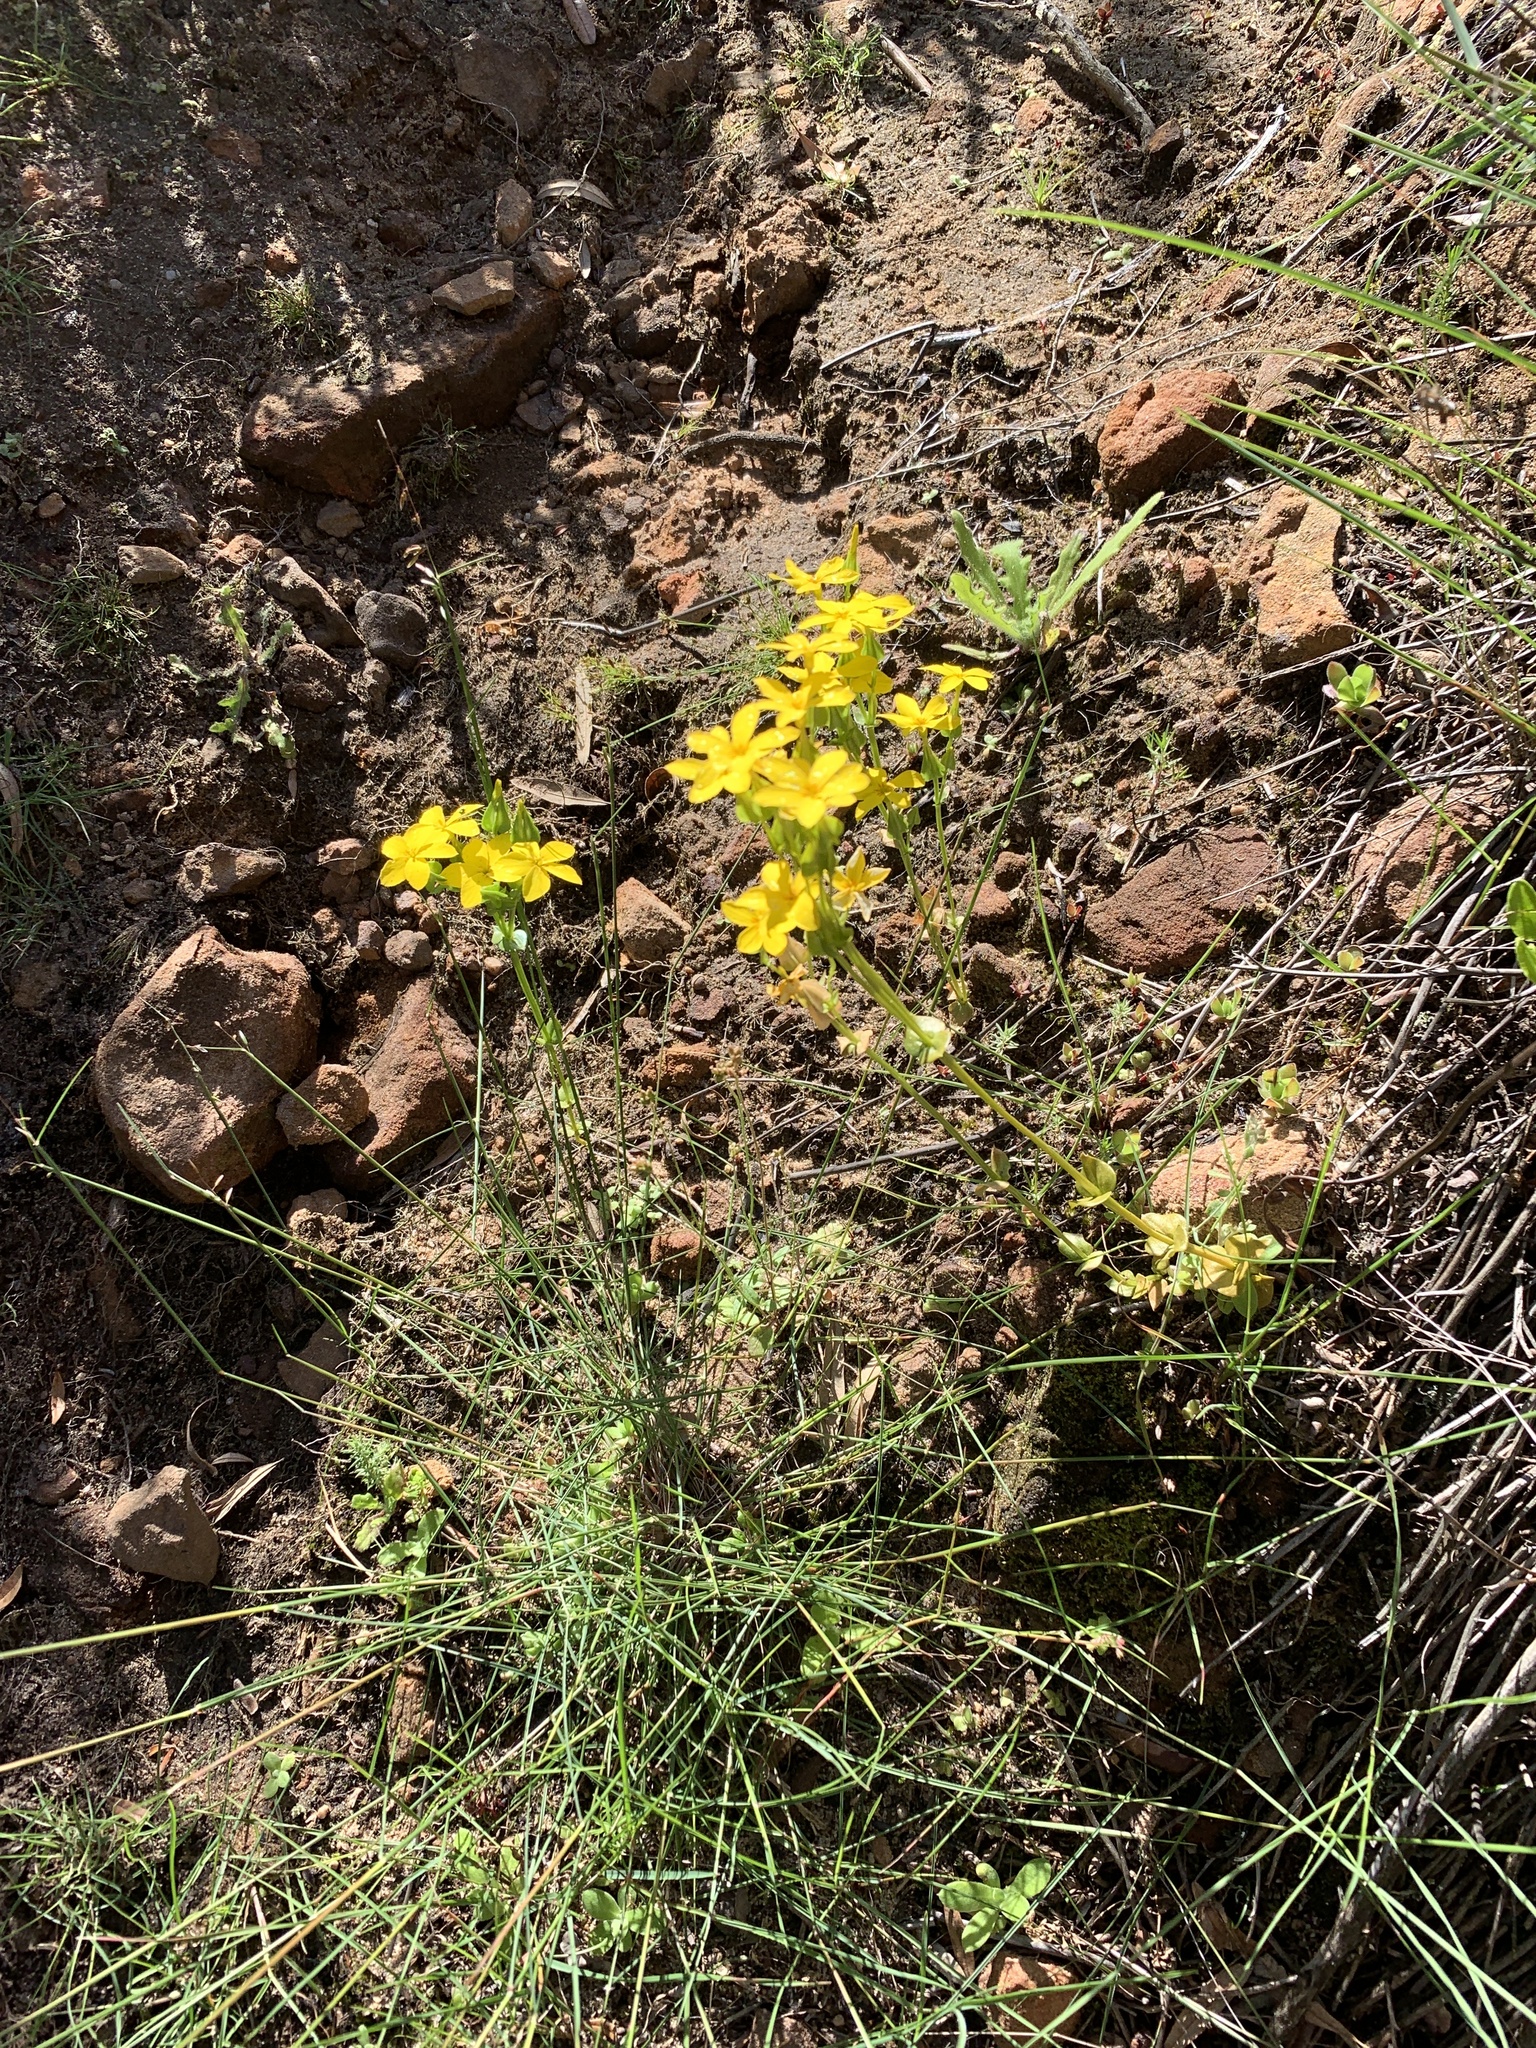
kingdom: Plantae
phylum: Tracheophyta
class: Magnoliopsida
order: Gentianales
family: Gentianaceae
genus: Sebaea
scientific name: Sebaea exacoides
